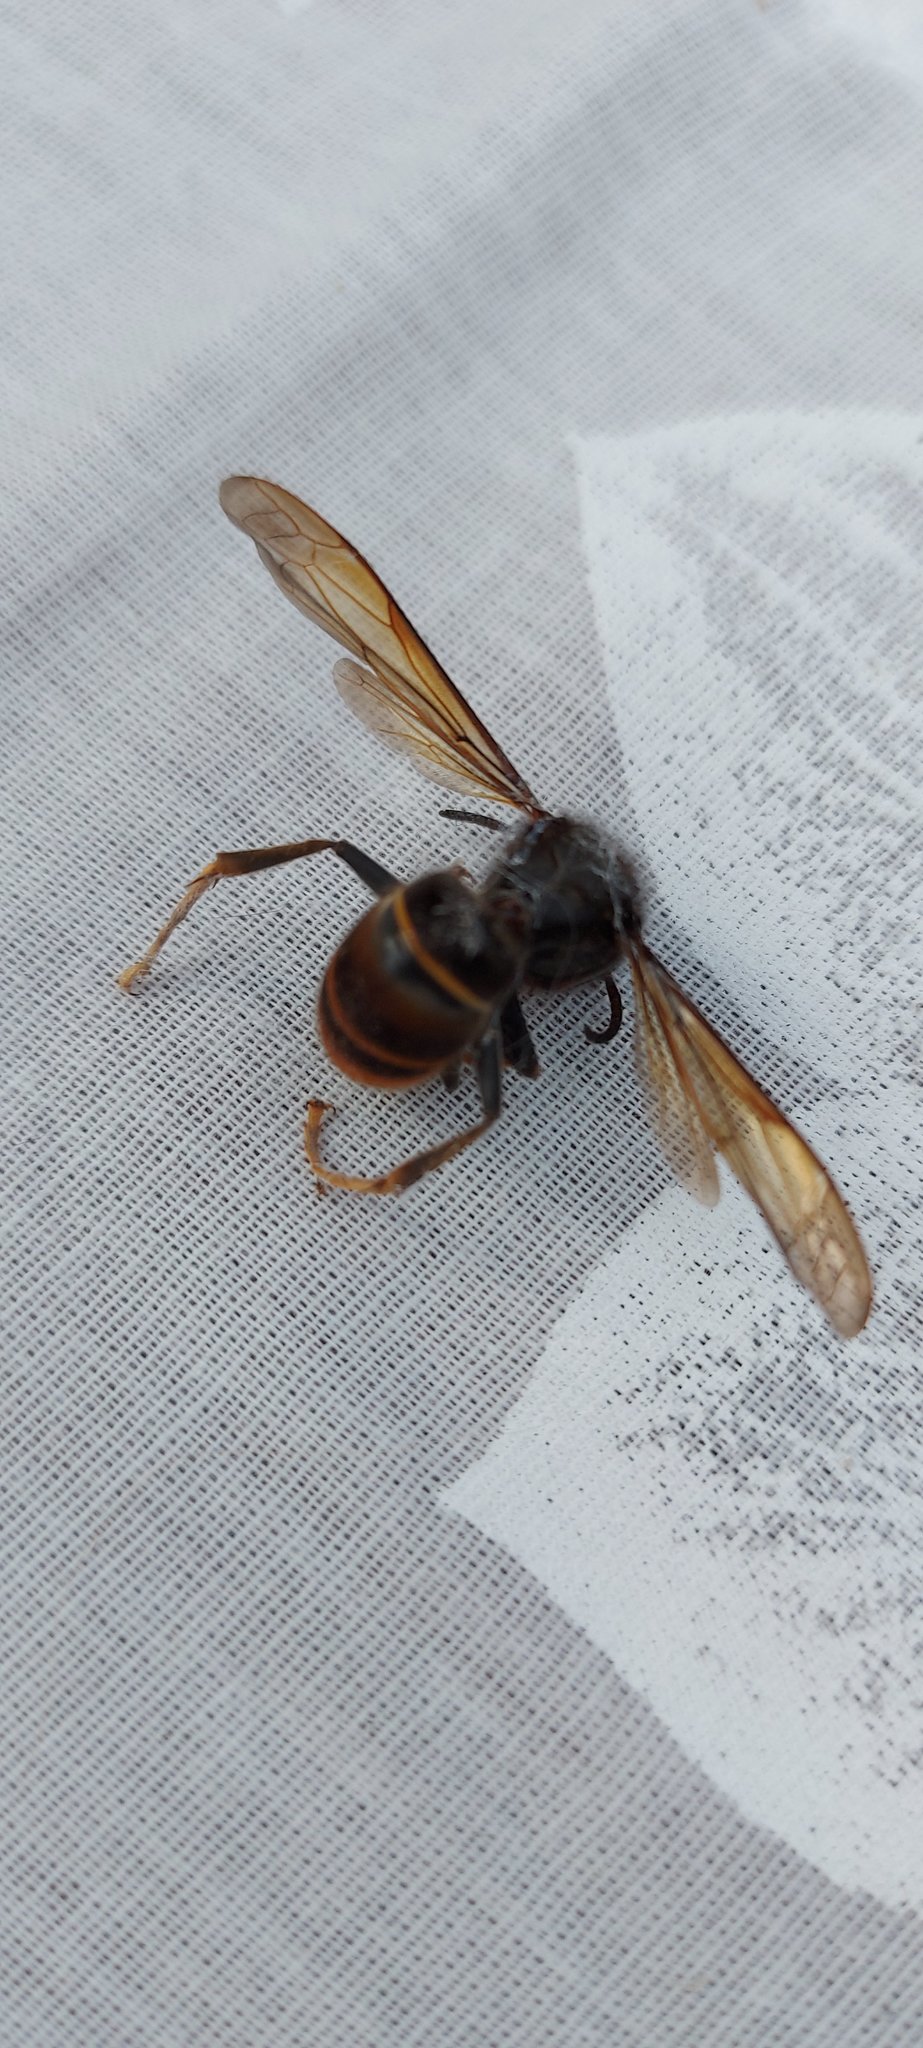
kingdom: Animalia
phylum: Arthropoda
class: Insecta
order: Hymenoptera
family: Vespidae
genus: Vespa
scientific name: Vespa velutina
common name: Asian hornet
